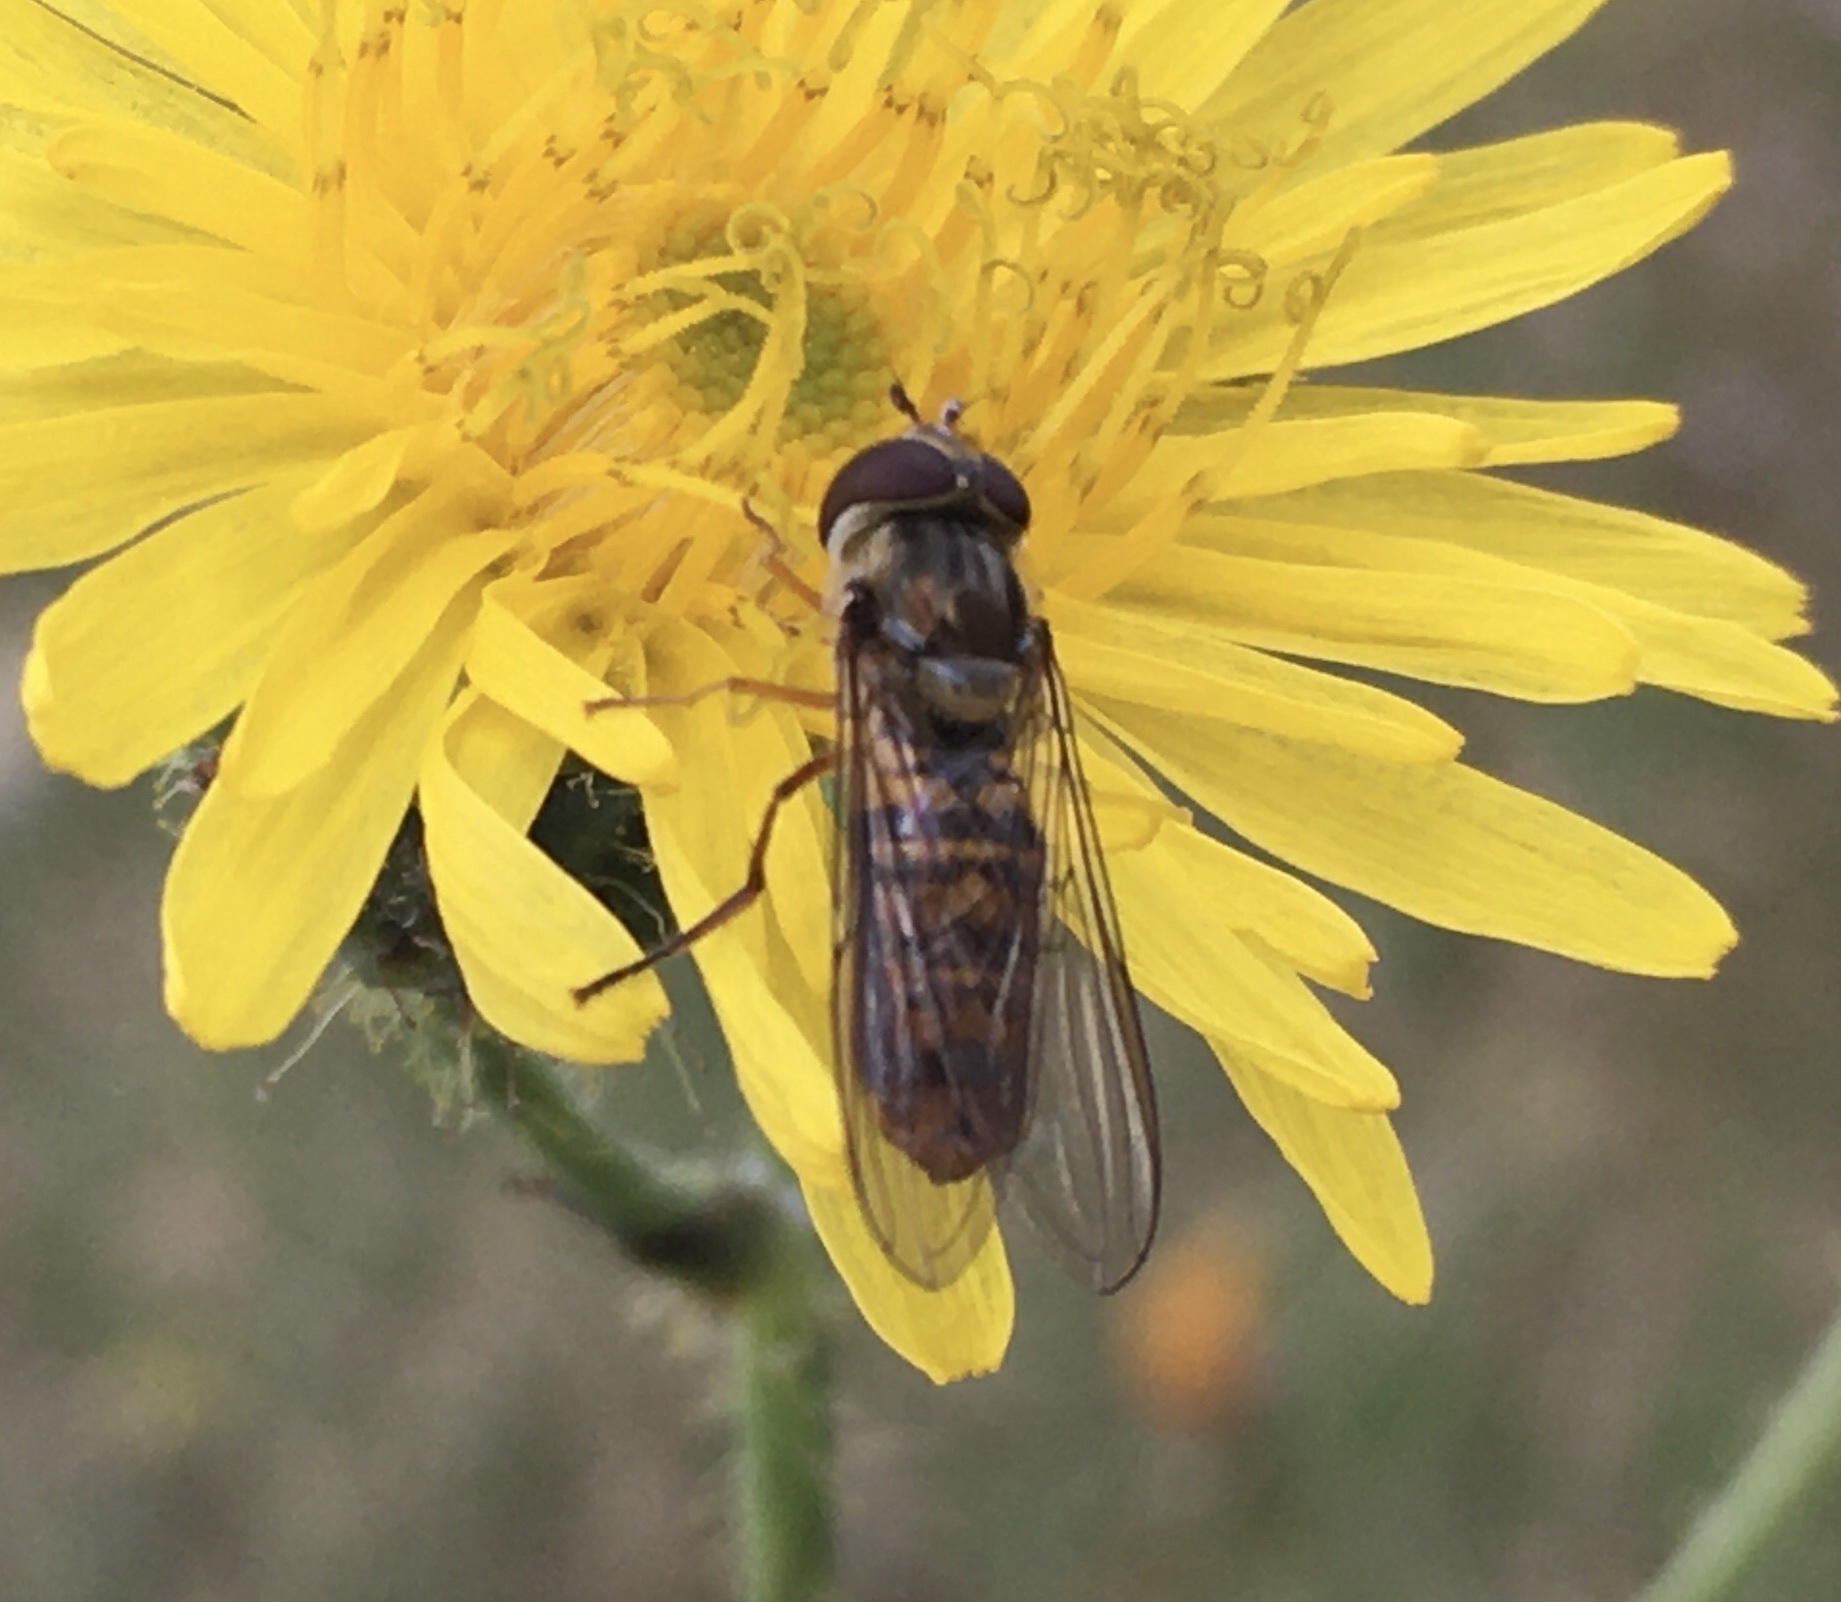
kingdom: Animalia
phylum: Arthropoda
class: Insecta
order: Diptera
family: Syrphidae
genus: Episyrphus
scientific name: Episyrphus balteatus
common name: Marmalade hoverfly
